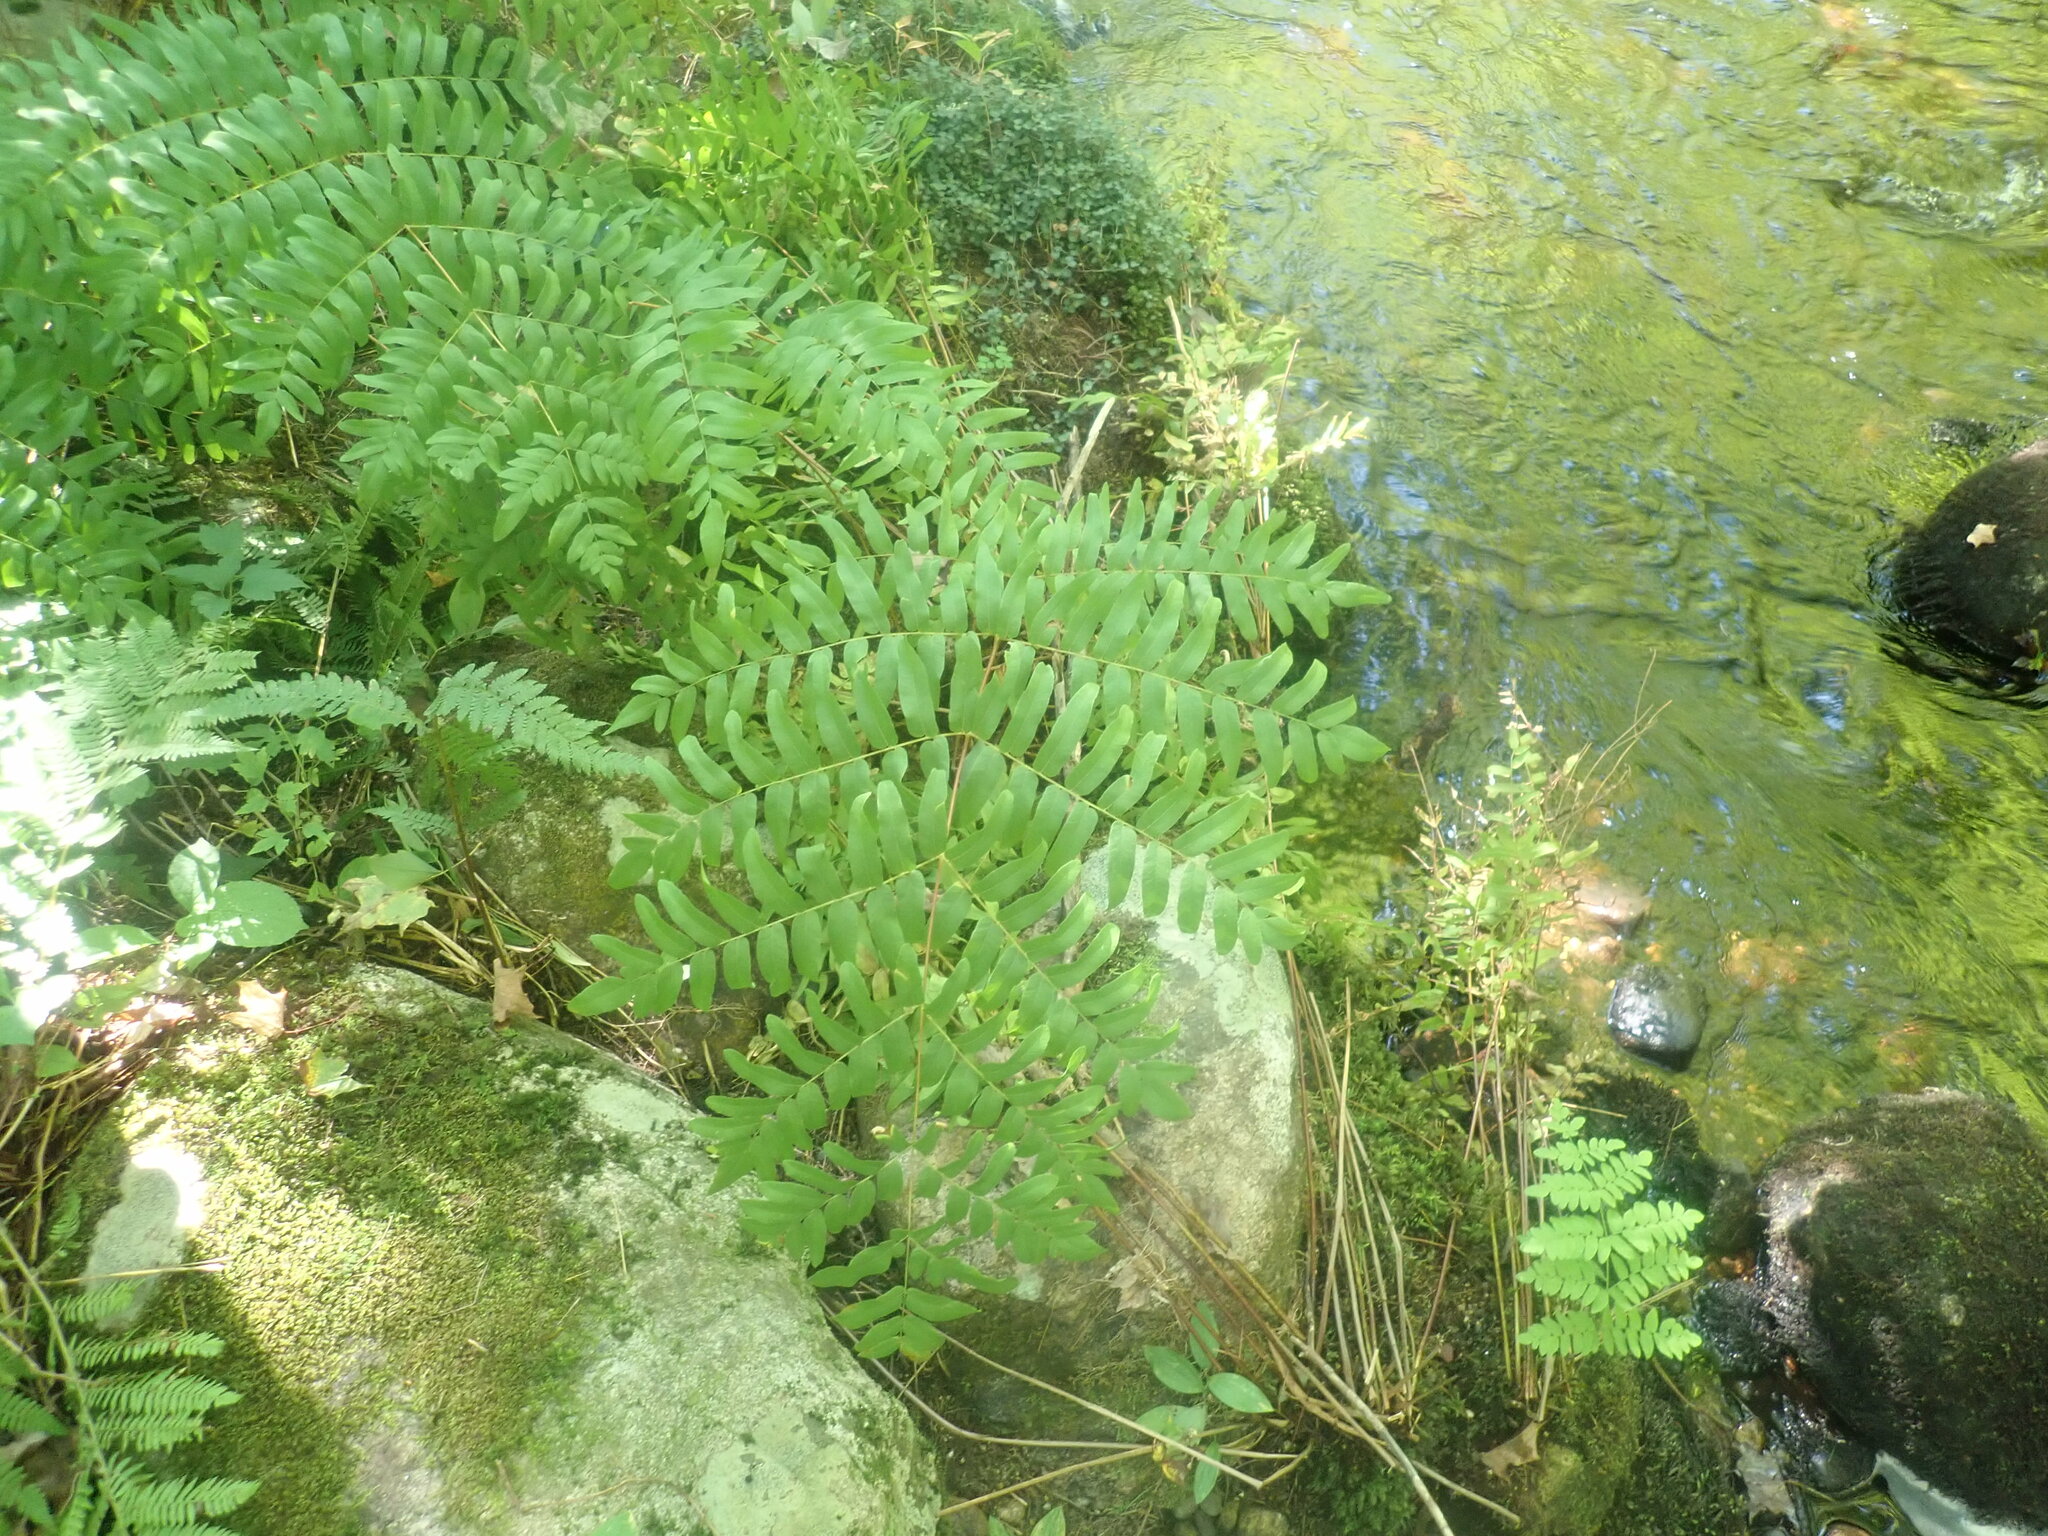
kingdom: Plantae
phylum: Tracheophyta
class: Polypodiopsida
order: Osmundales
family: Osmundaceae
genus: Osmunda
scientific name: Osmunda spectabilis
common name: American royal fern
